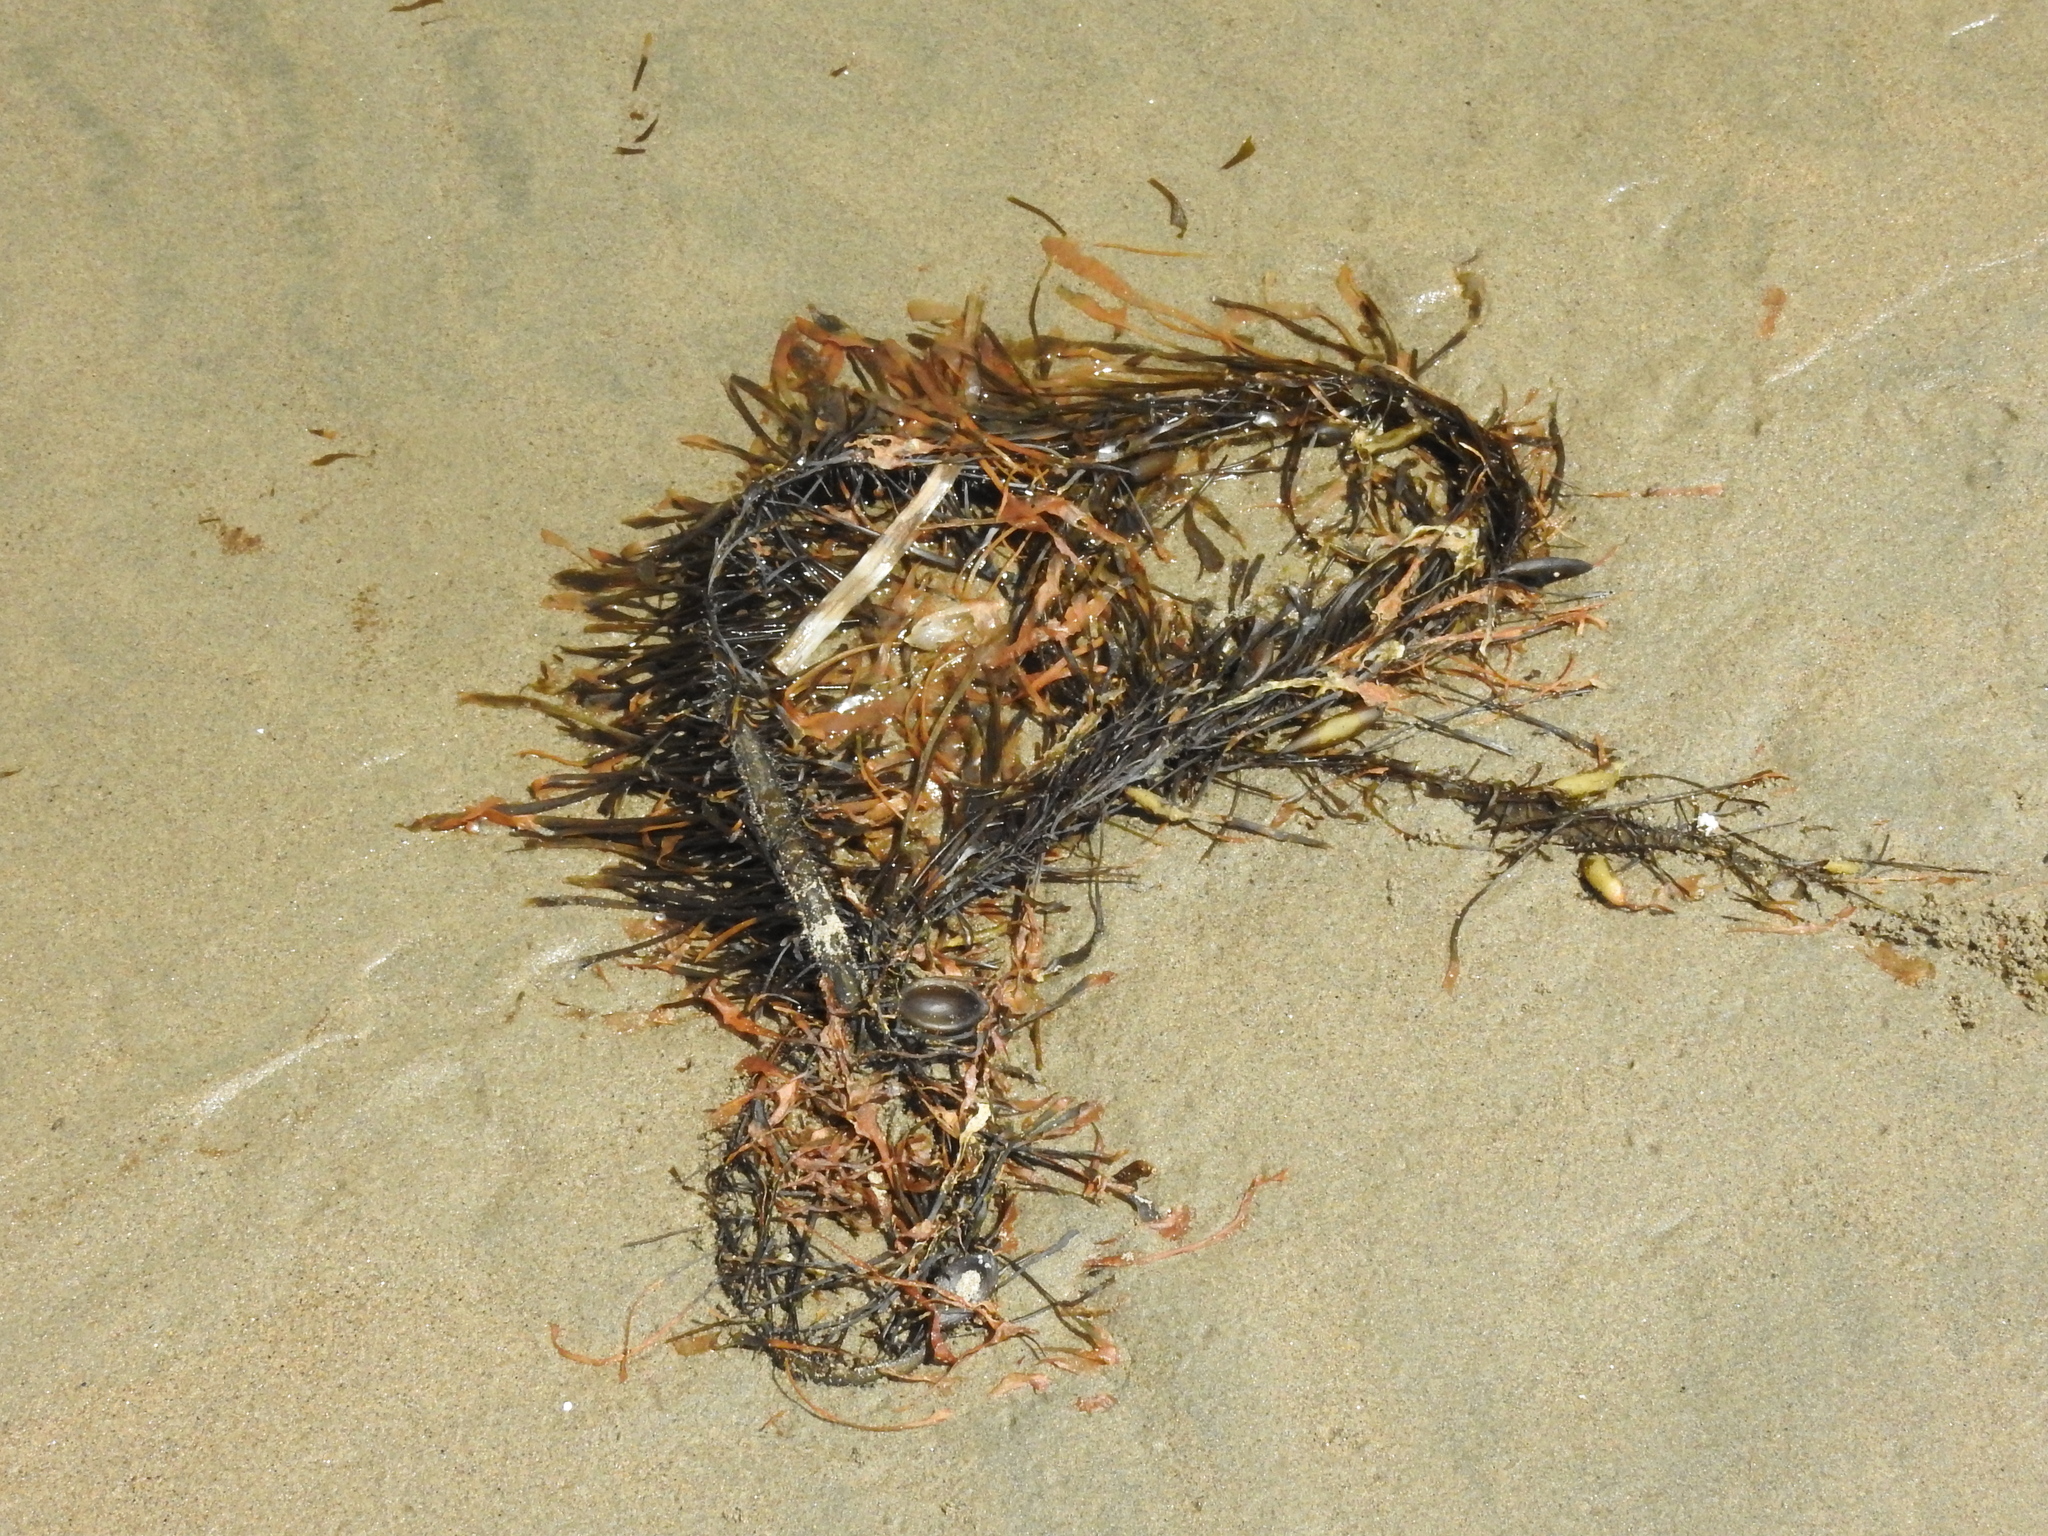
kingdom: Chromista
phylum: Ochrophyta
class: Phaeophyceae
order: Laminariales
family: Lessoniaceae
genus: Egregia
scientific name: Egregia menziesii
